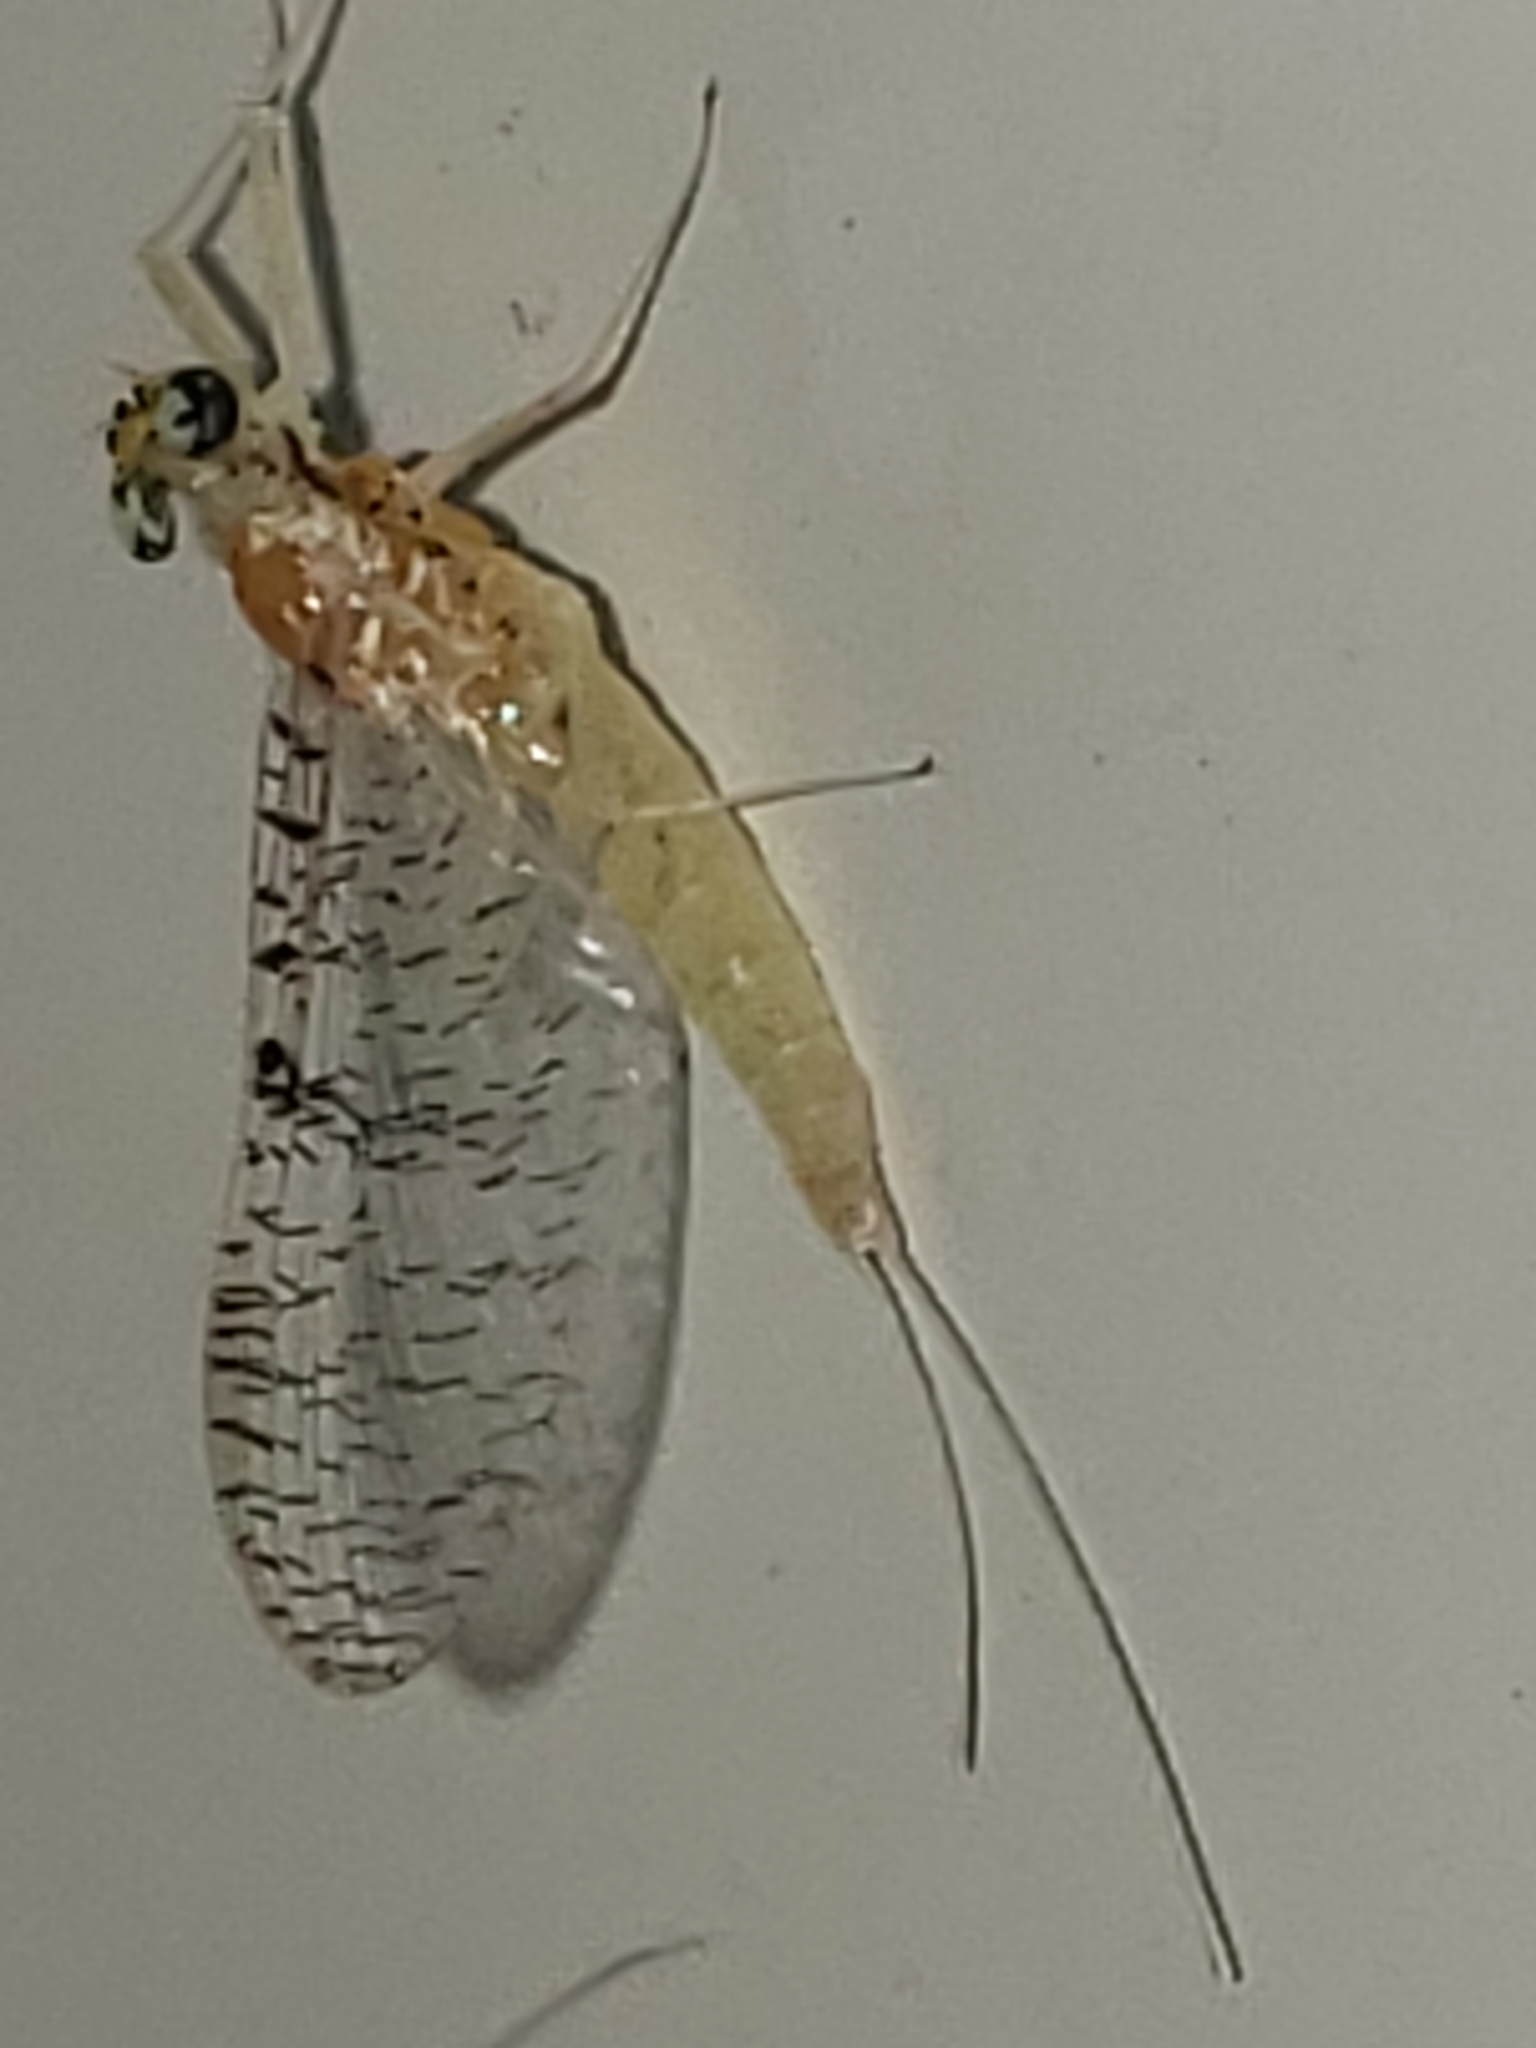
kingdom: Animalia
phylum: Arthropoda
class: Insecta
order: Ephemeroptera
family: Heptageniidae
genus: Leucrocuta
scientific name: Leucrocuta juno
